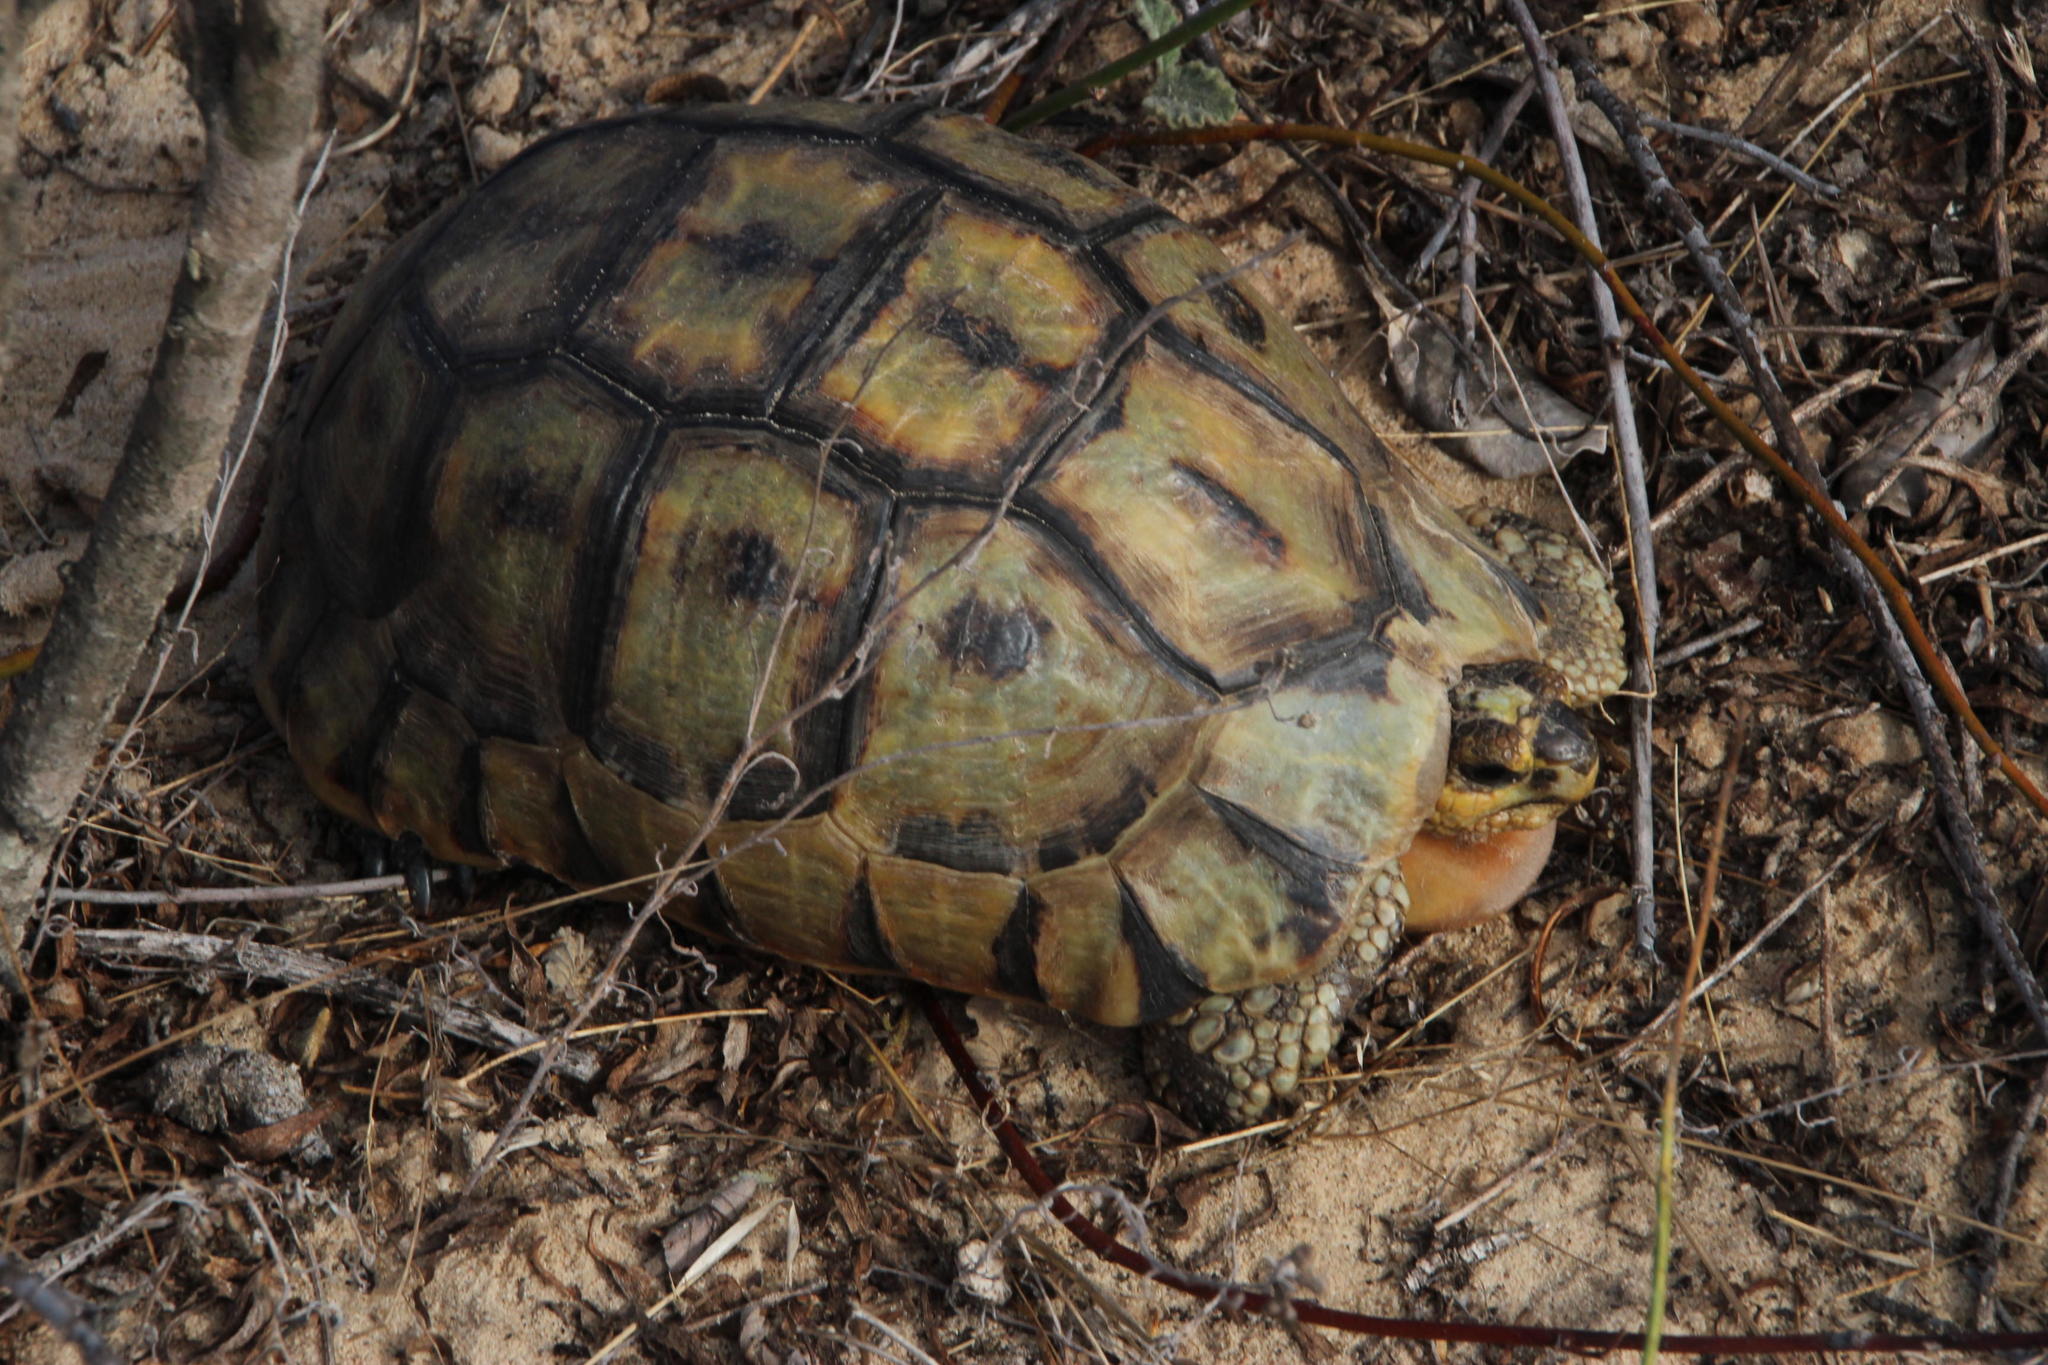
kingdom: Animalia
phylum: Chordata
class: Testudines
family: Testudinidae
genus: Chersina
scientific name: Chersina angulata
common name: South african bowsprit tortoise
